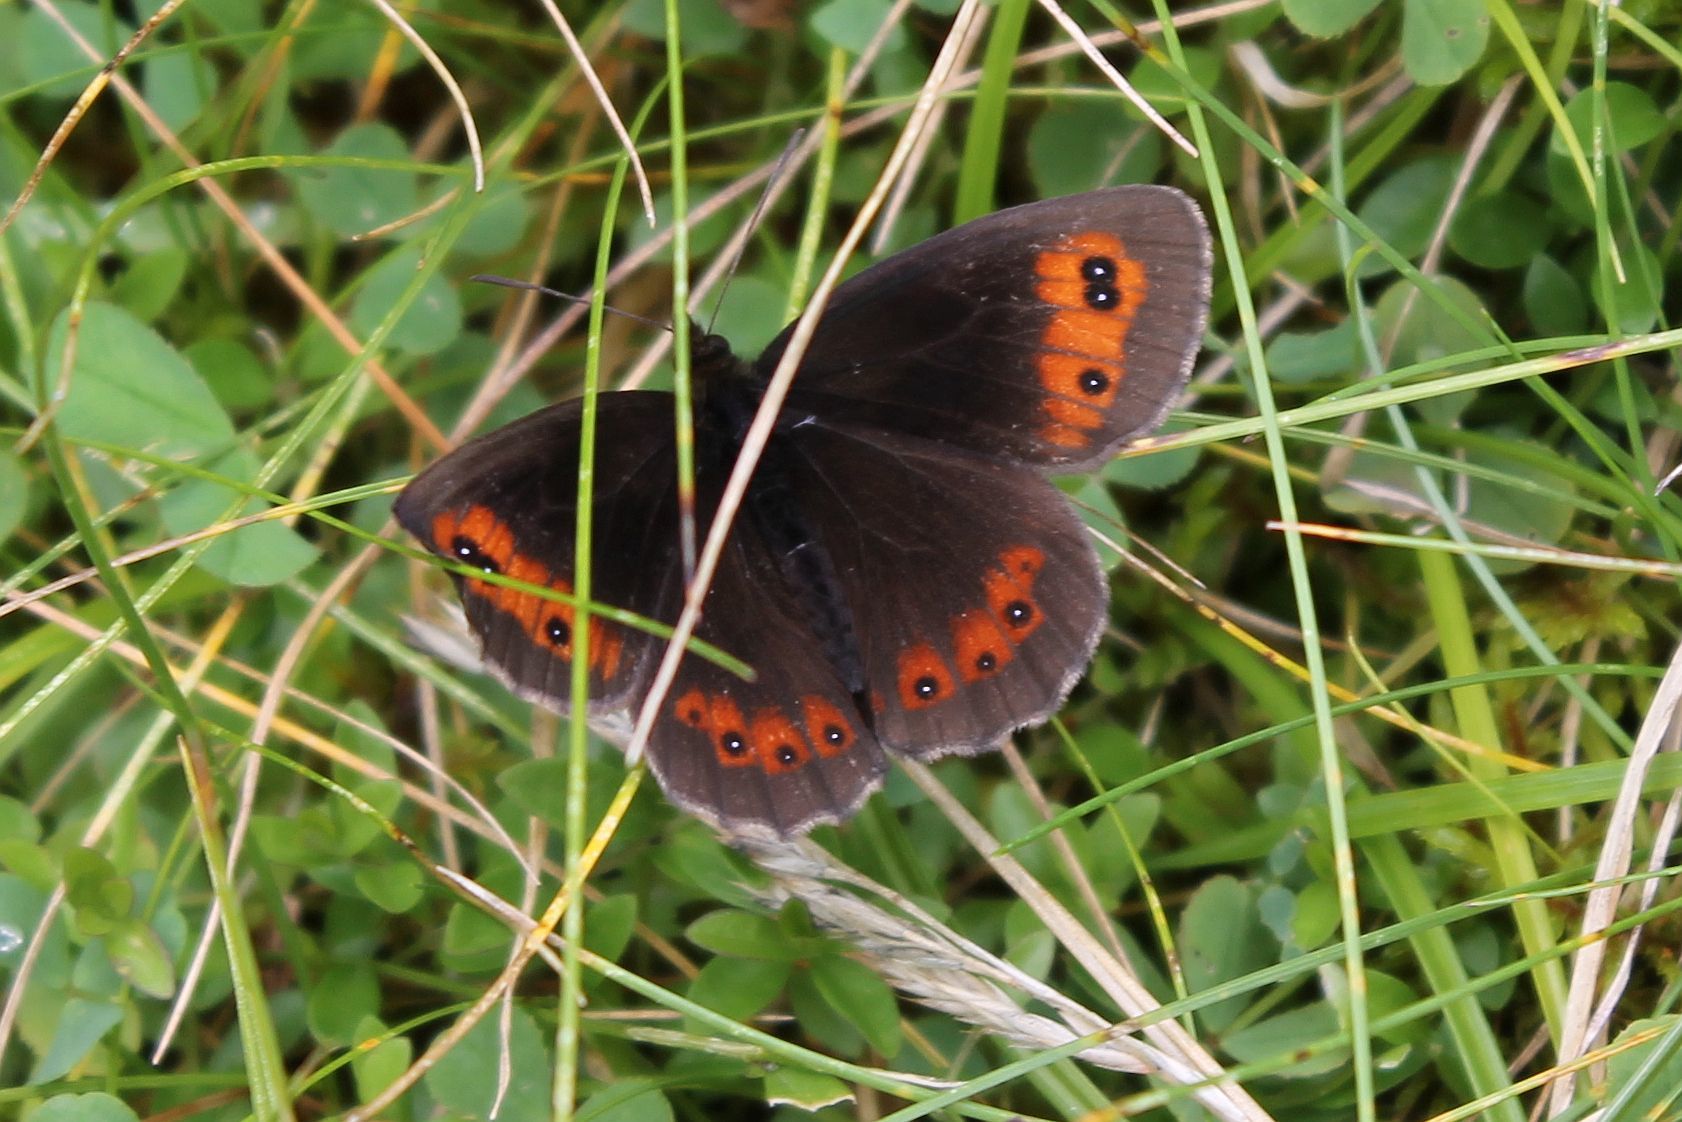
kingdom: Animalia
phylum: Arthropoda
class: Insecta
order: Lepidoptera
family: Nymphalidae
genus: Erebia
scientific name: Erebia aethiops
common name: Scotch argus
